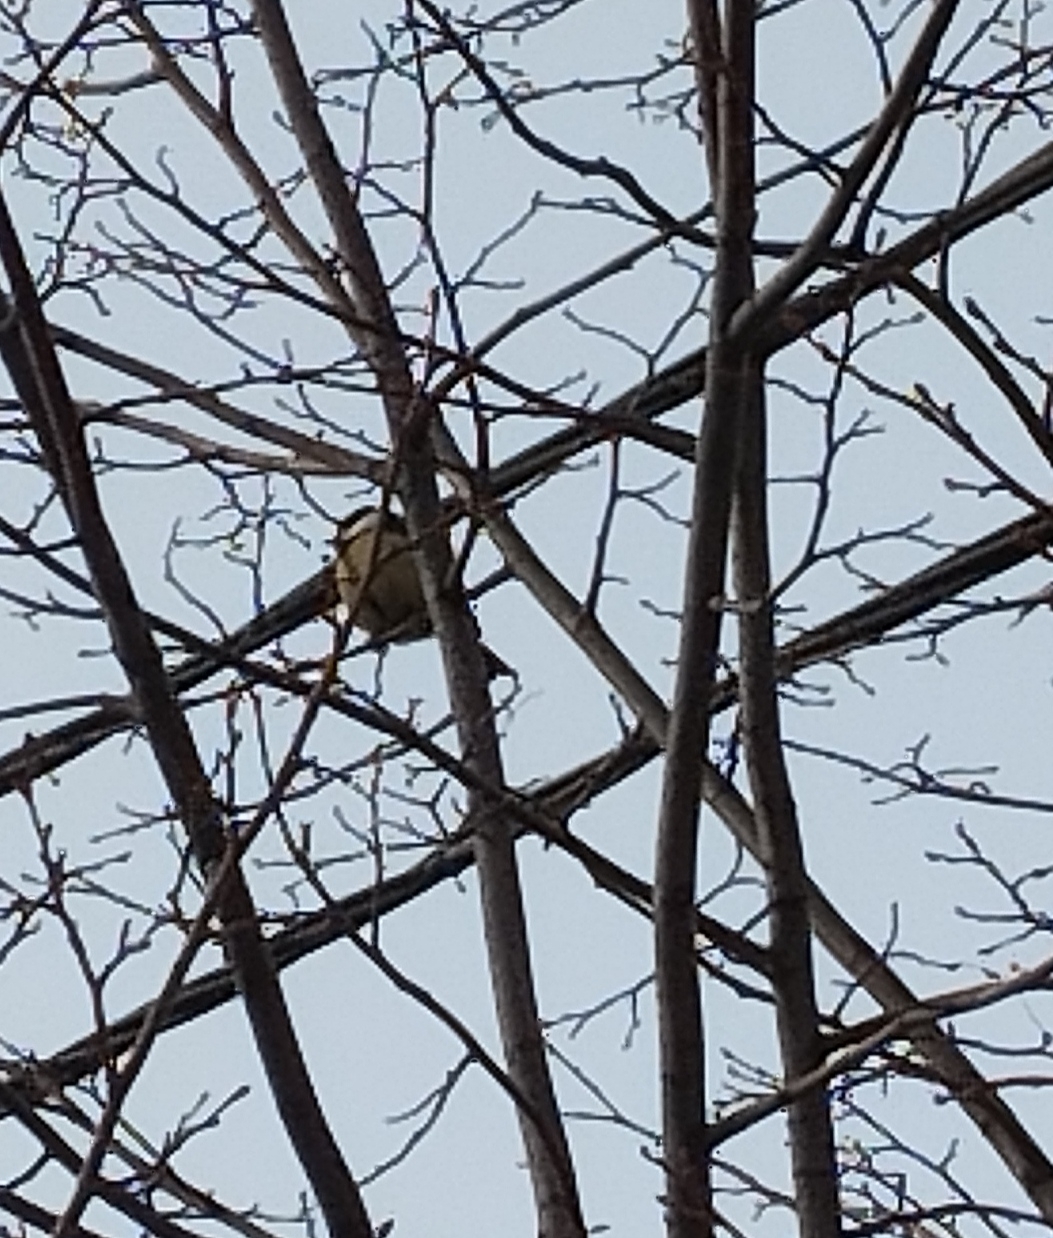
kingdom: Animalia
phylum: Chordata
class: Aves
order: Passeriformes
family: Paridae
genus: Parus
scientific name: Parus major
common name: Great tit
